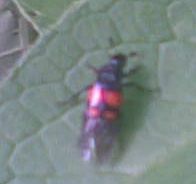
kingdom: Animalia
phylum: Arthropoda
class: Insecta
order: Coleoptera
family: Staphylinidae
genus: Nicrophorus
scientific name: Nicrophorus vespilloides
